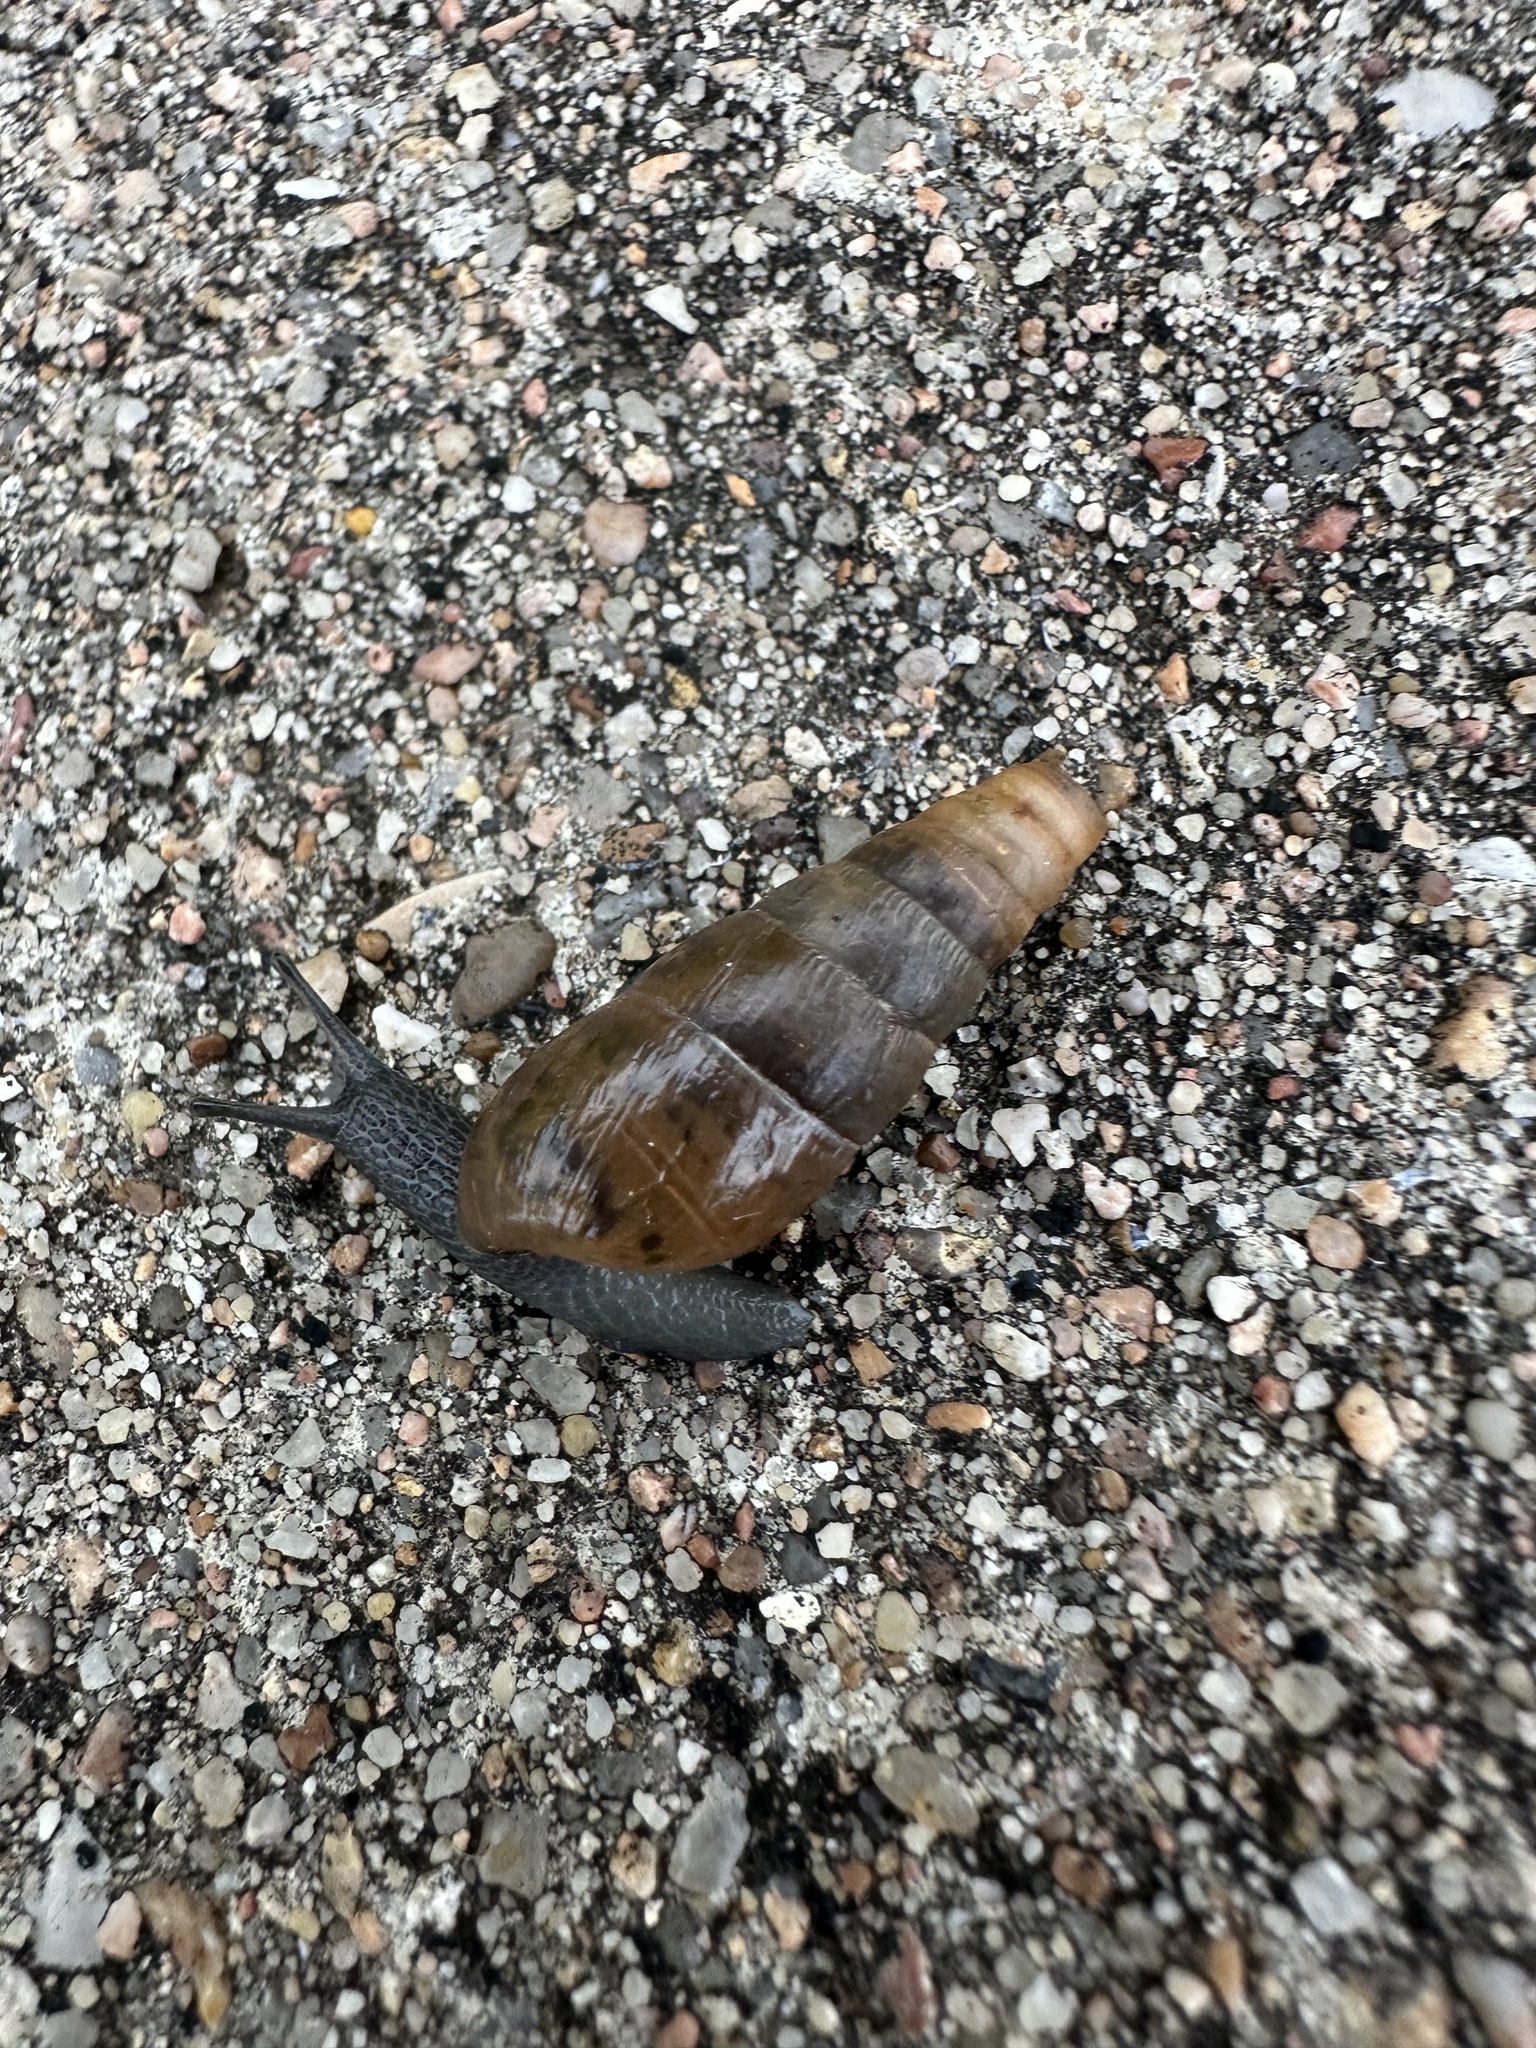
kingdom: Animalia
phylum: Mollusca
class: Gastropoda
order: Stylommatophora
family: Achatinidae
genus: Rumina
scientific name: Rumina decollata
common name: Decollate snail
